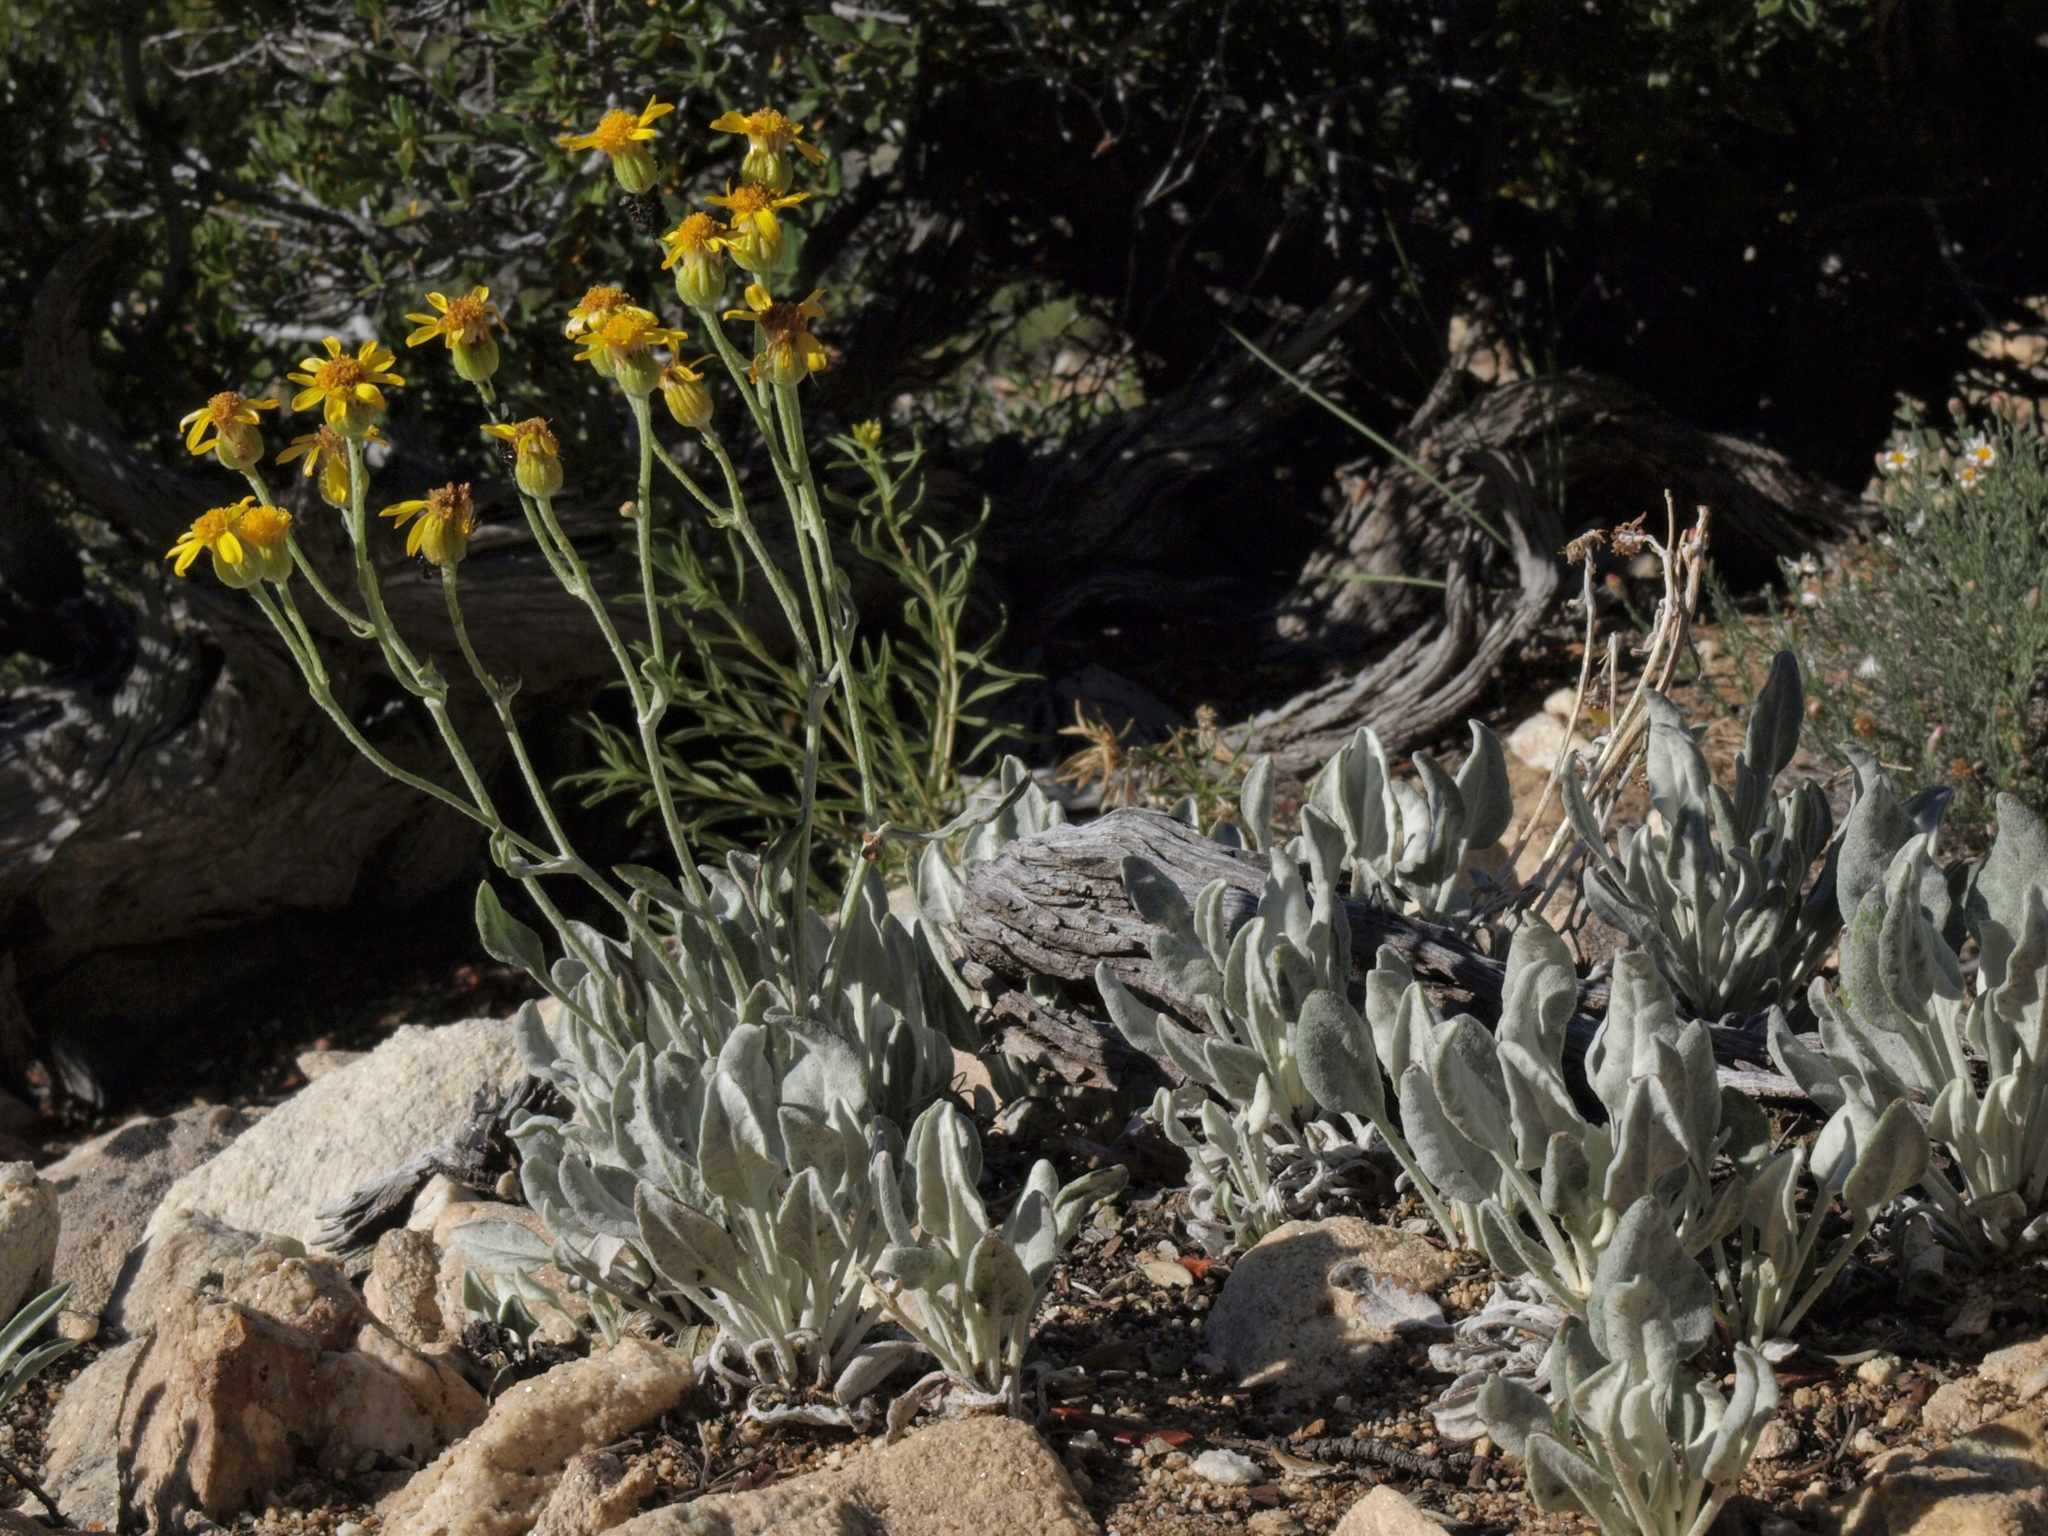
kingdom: Plantae
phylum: Tracheophyta
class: Magnoliopsida
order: Asterales
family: Asteraceae
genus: Packera
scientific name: Packera cana
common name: Woolly groundsel
